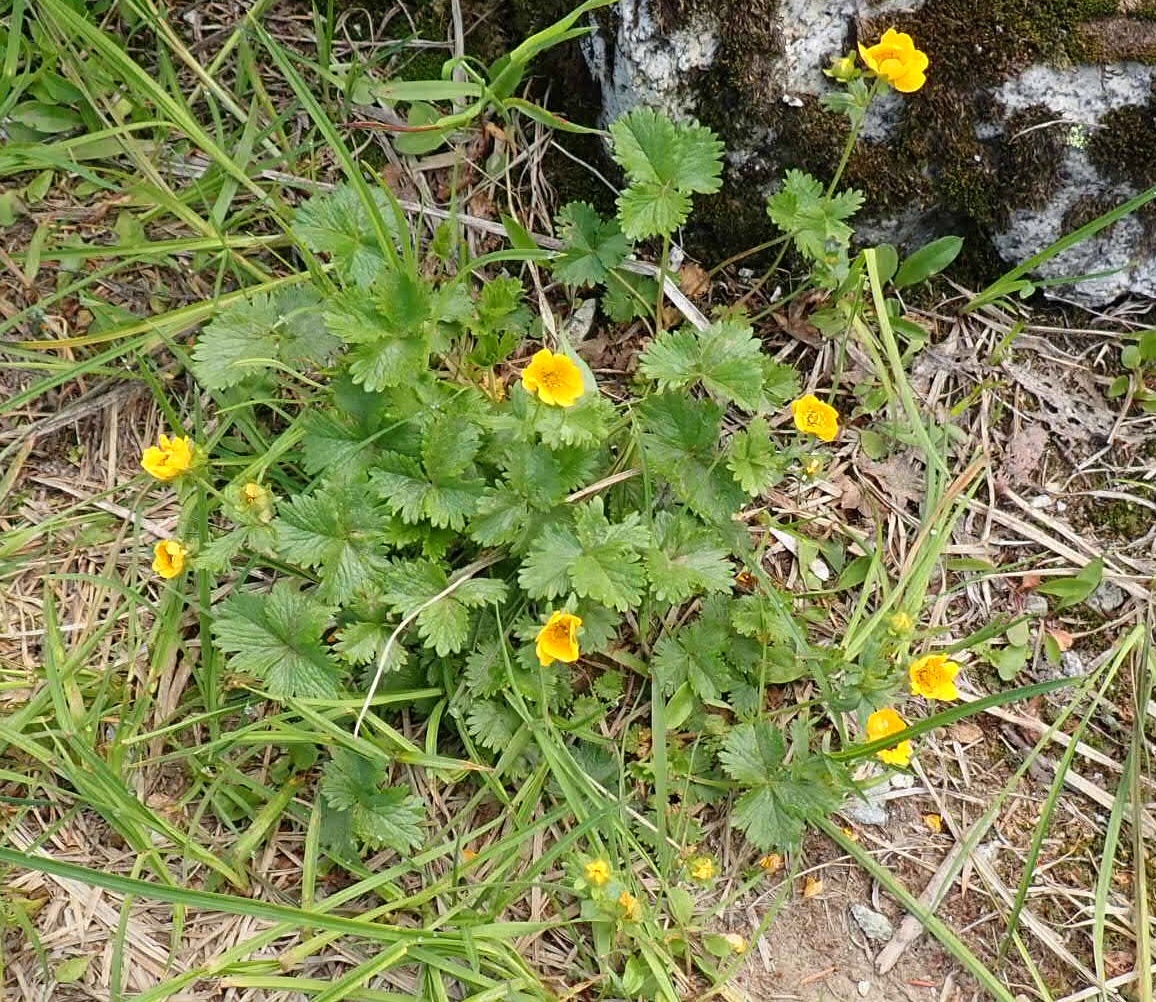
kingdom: Plantae
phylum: Tracheophyta
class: Magnoliopsida
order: Rosales
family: Rosaceae
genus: Potentilla
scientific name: Potentilla flabellifolia
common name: Mount rainier cinquefoil
